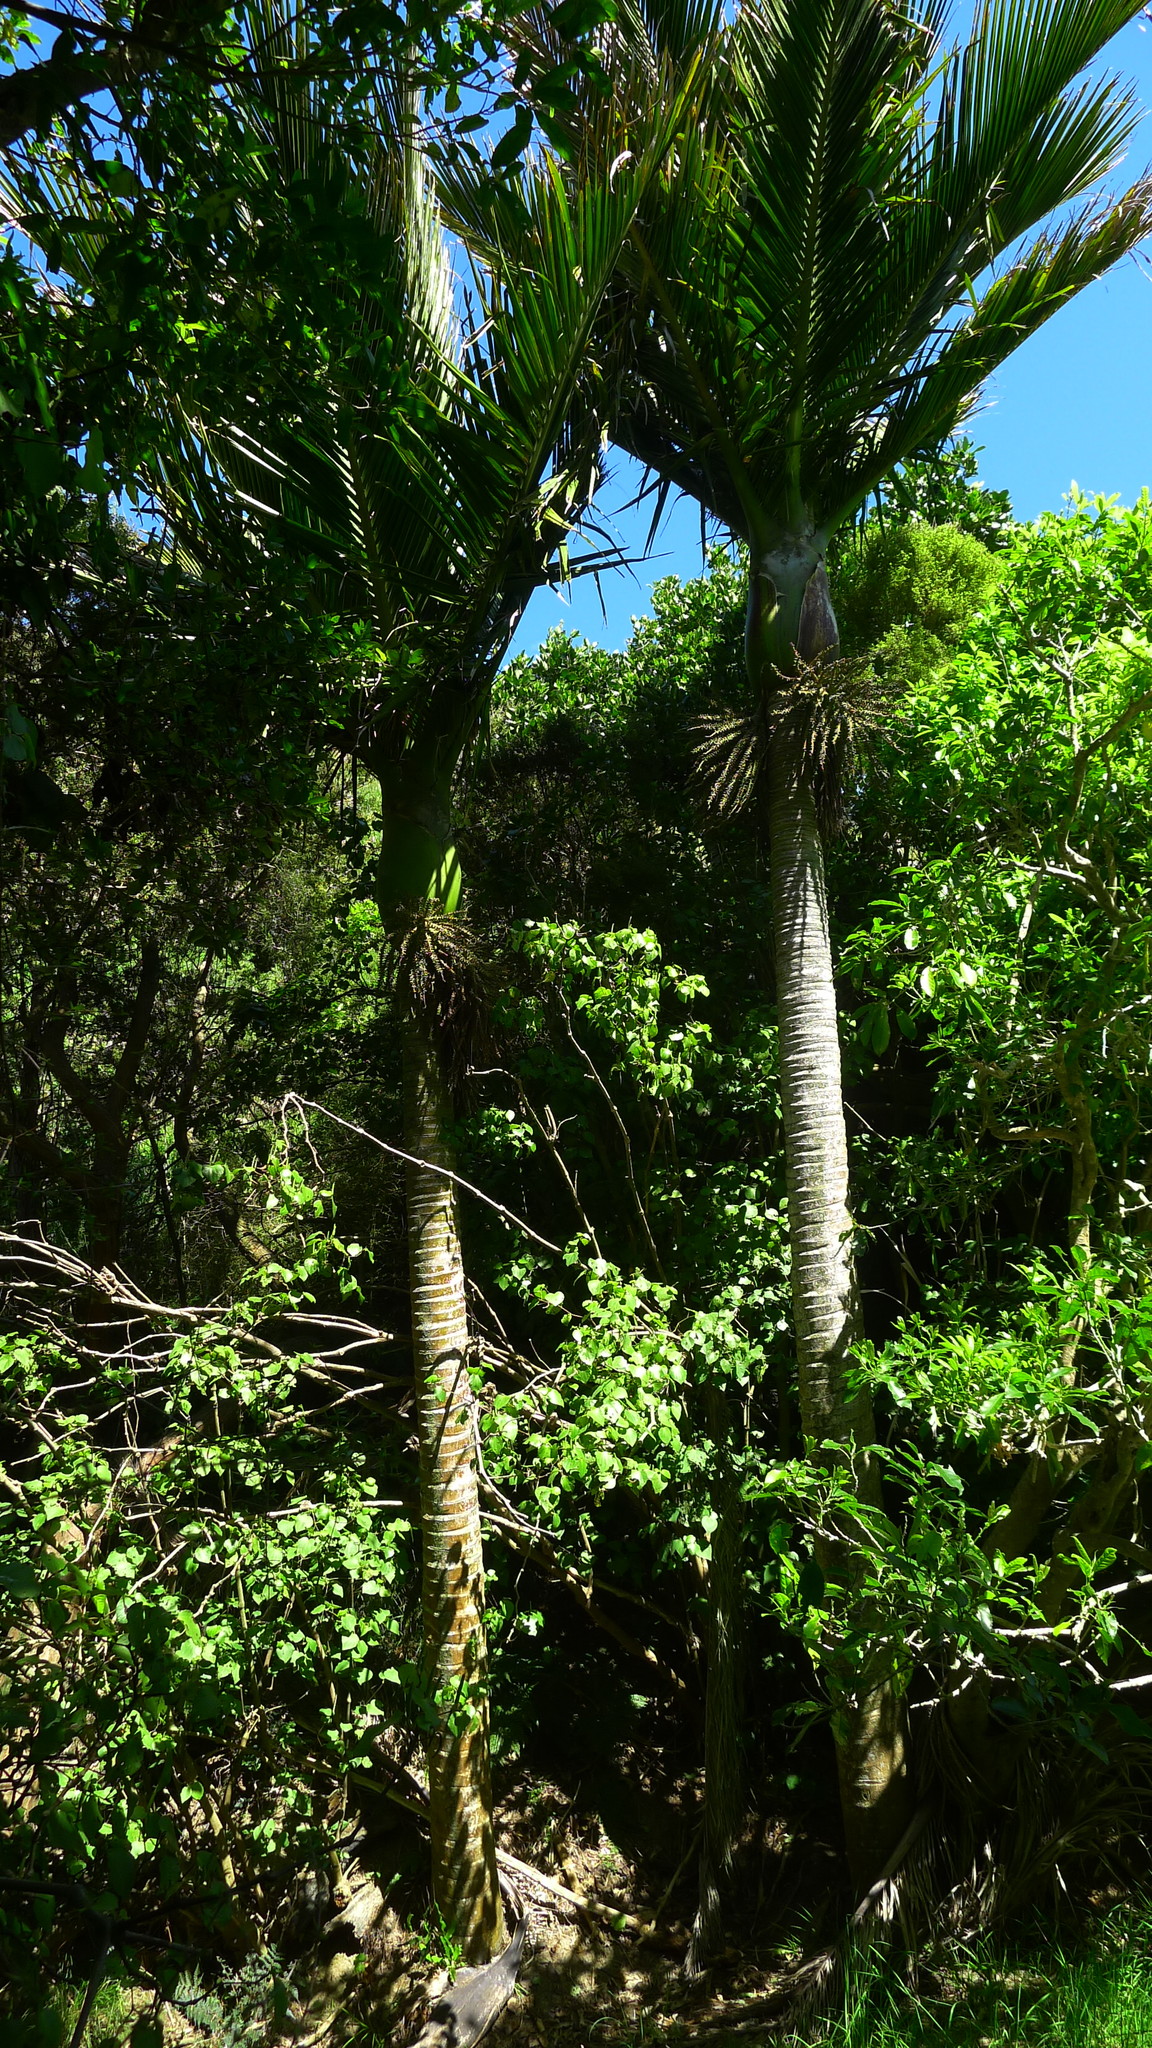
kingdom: Plantae
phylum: Tracheophyta
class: Liliopsida
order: Arecales
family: Arecaceae
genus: Rhopalostylis
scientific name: Rhopalostylis sapida
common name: Feather-duster palm
